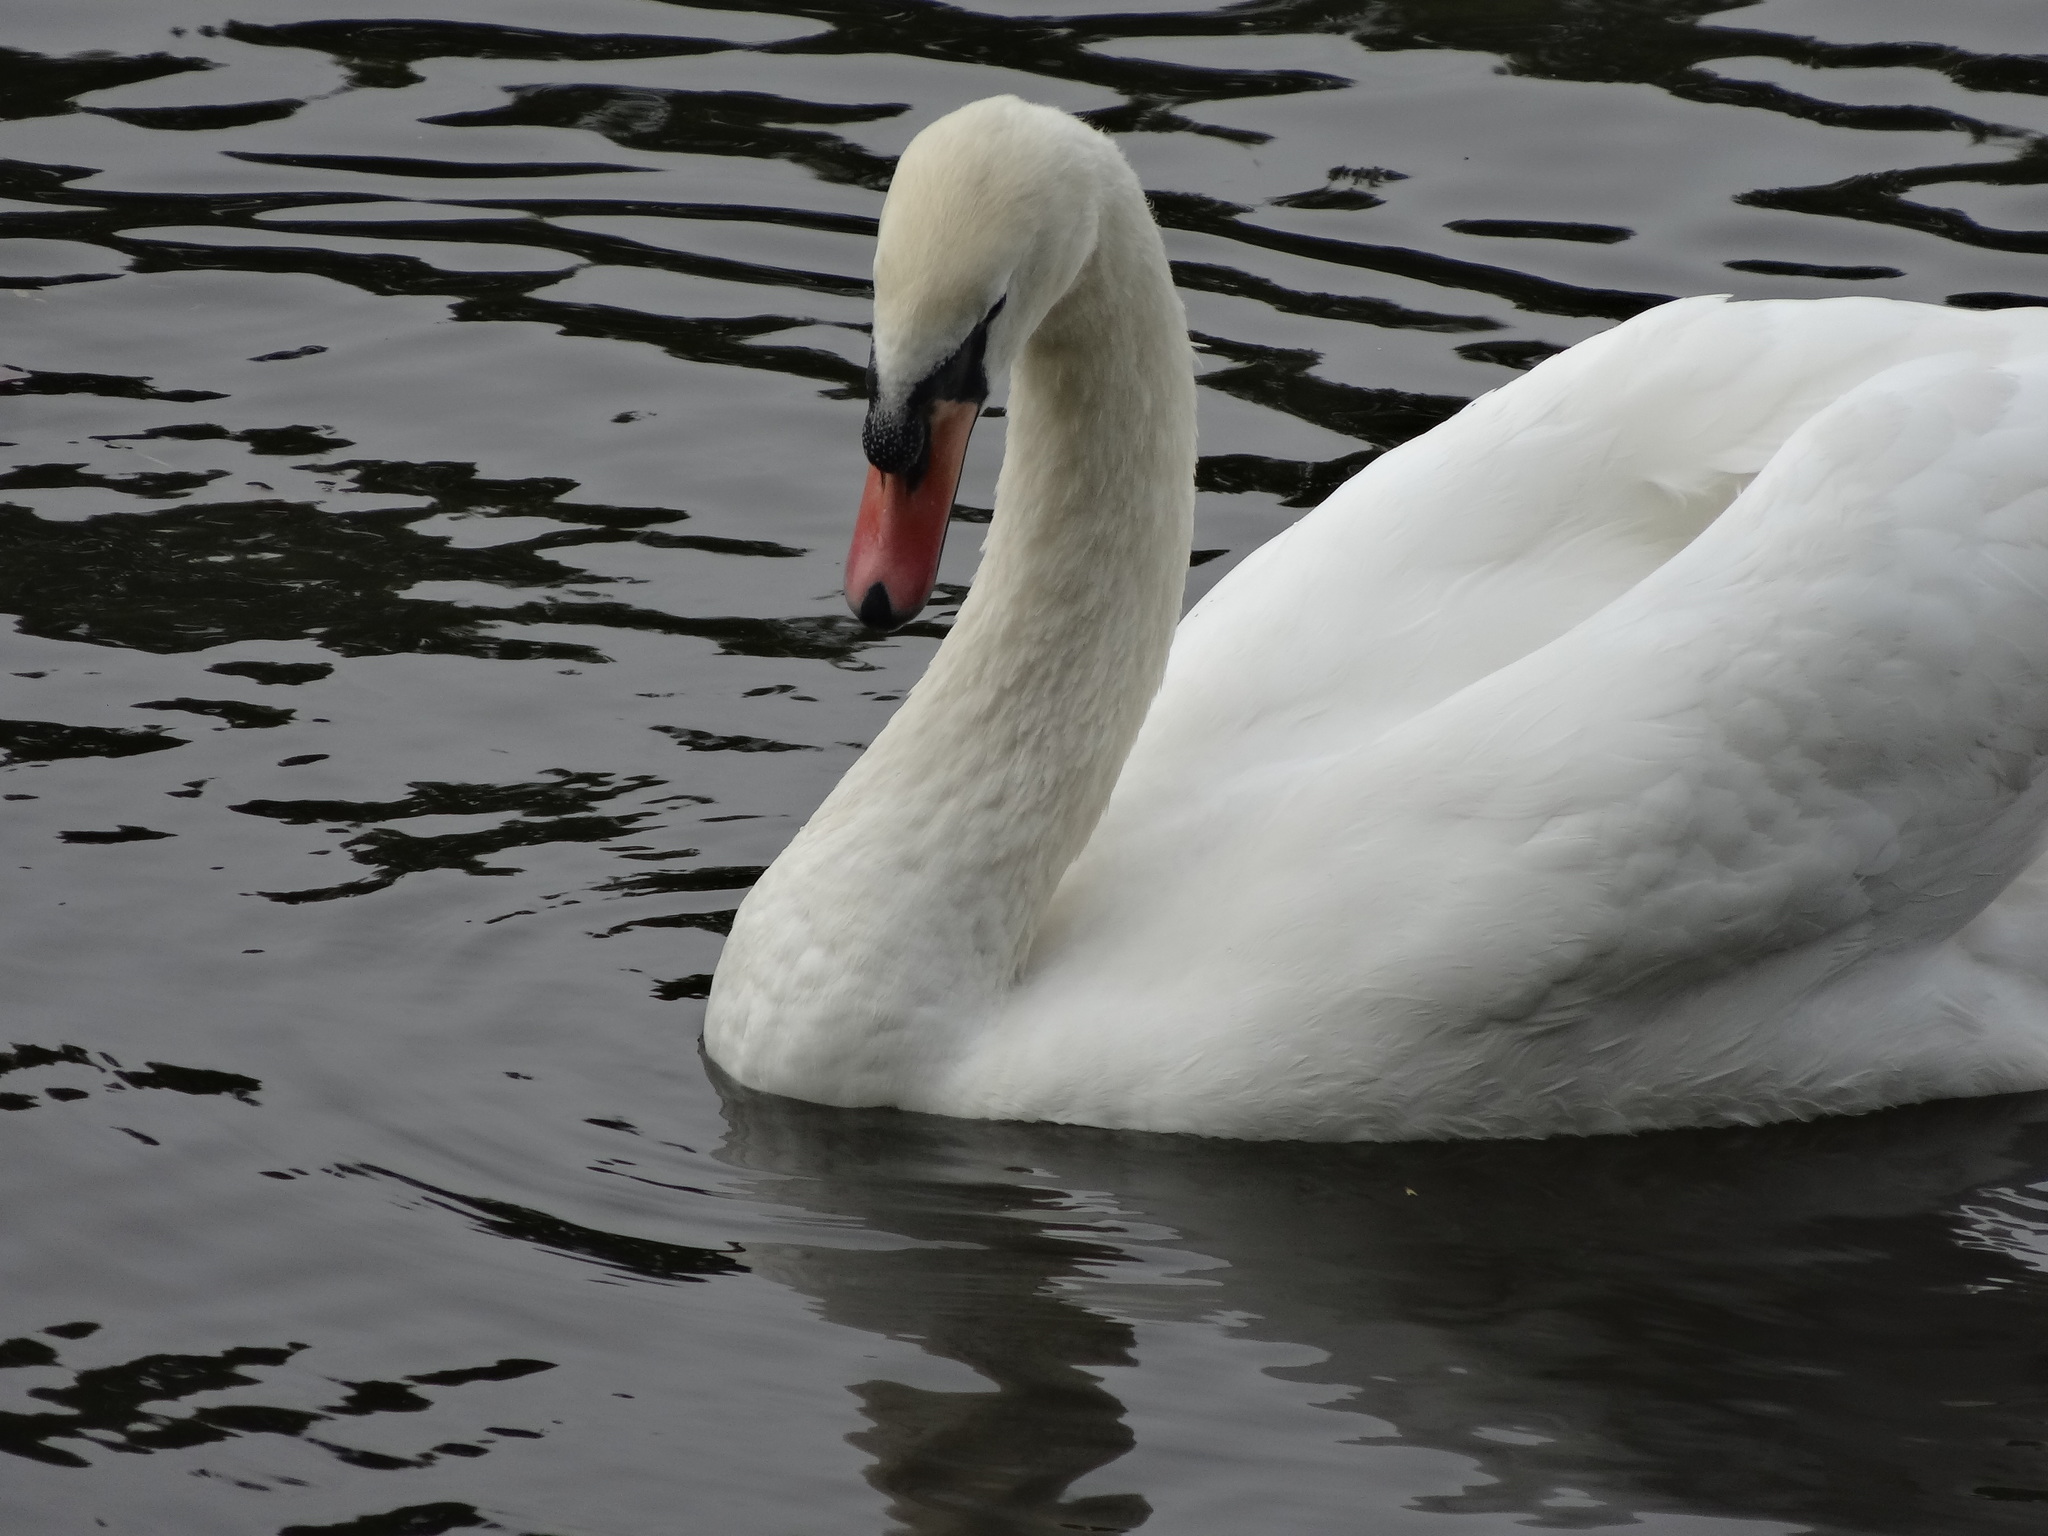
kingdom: Animalia
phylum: Chordata
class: Aves
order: Anseriformes
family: Anatidae
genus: Cygnus
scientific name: Cygnus olor
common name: Mute swan
